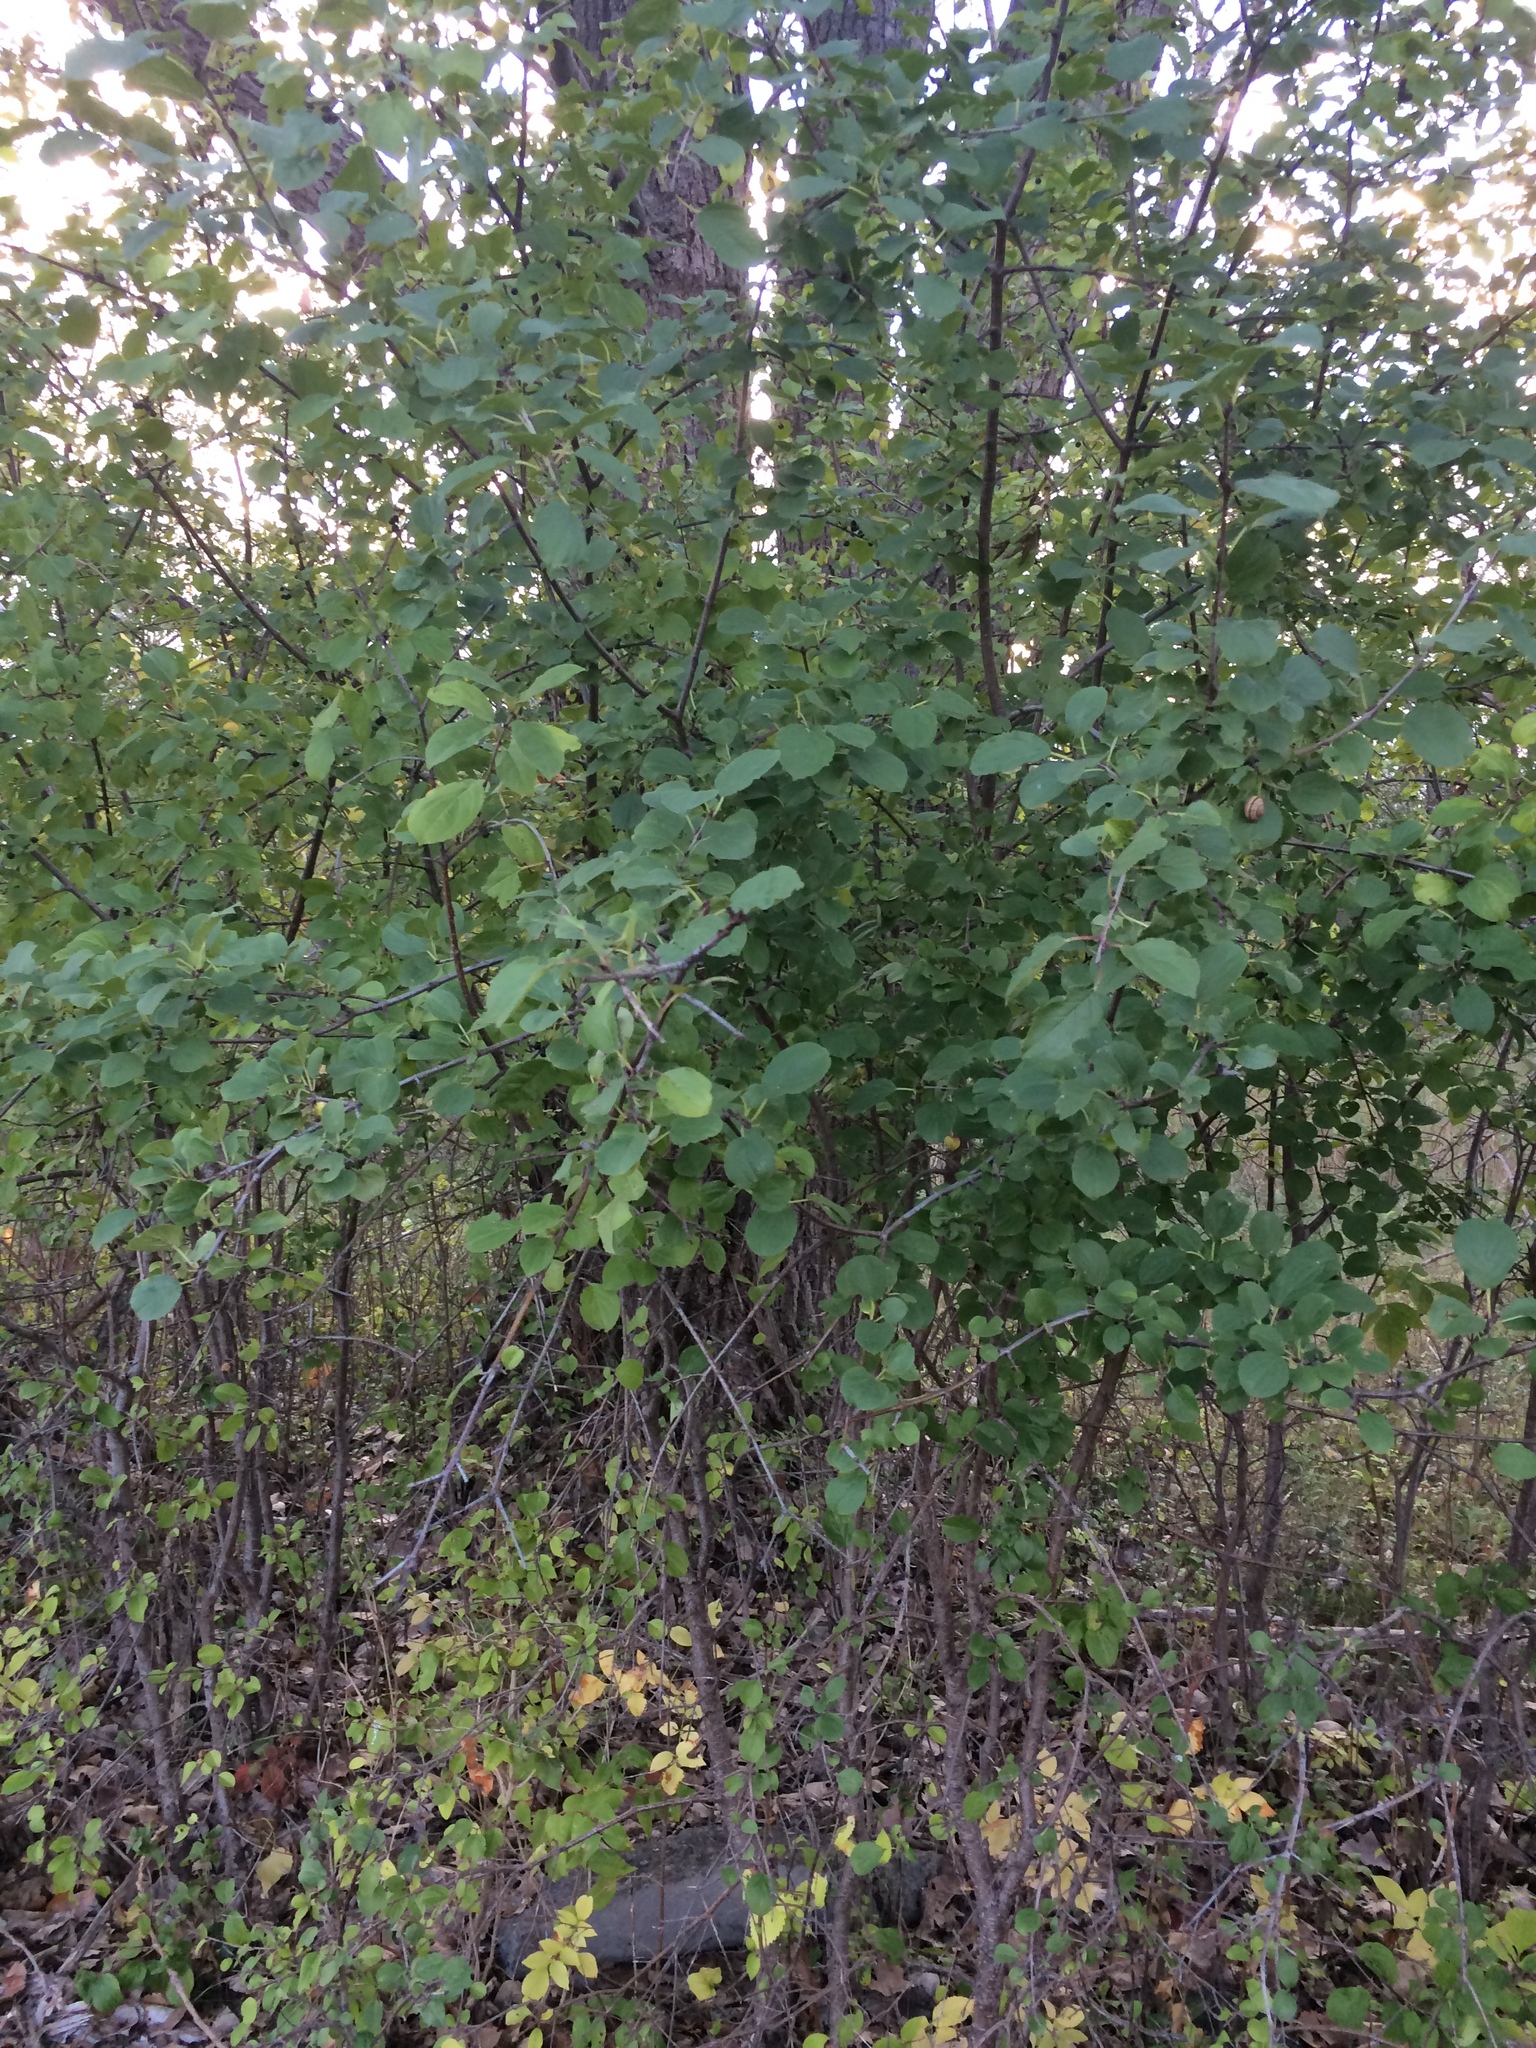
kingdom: Plantae
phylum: Tracheophyta
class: Magnoliopsida
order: Rosales
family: Rhamnaceae
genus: Rhamnus
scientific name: Rhamnus cathartica
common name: Common buckthorn
